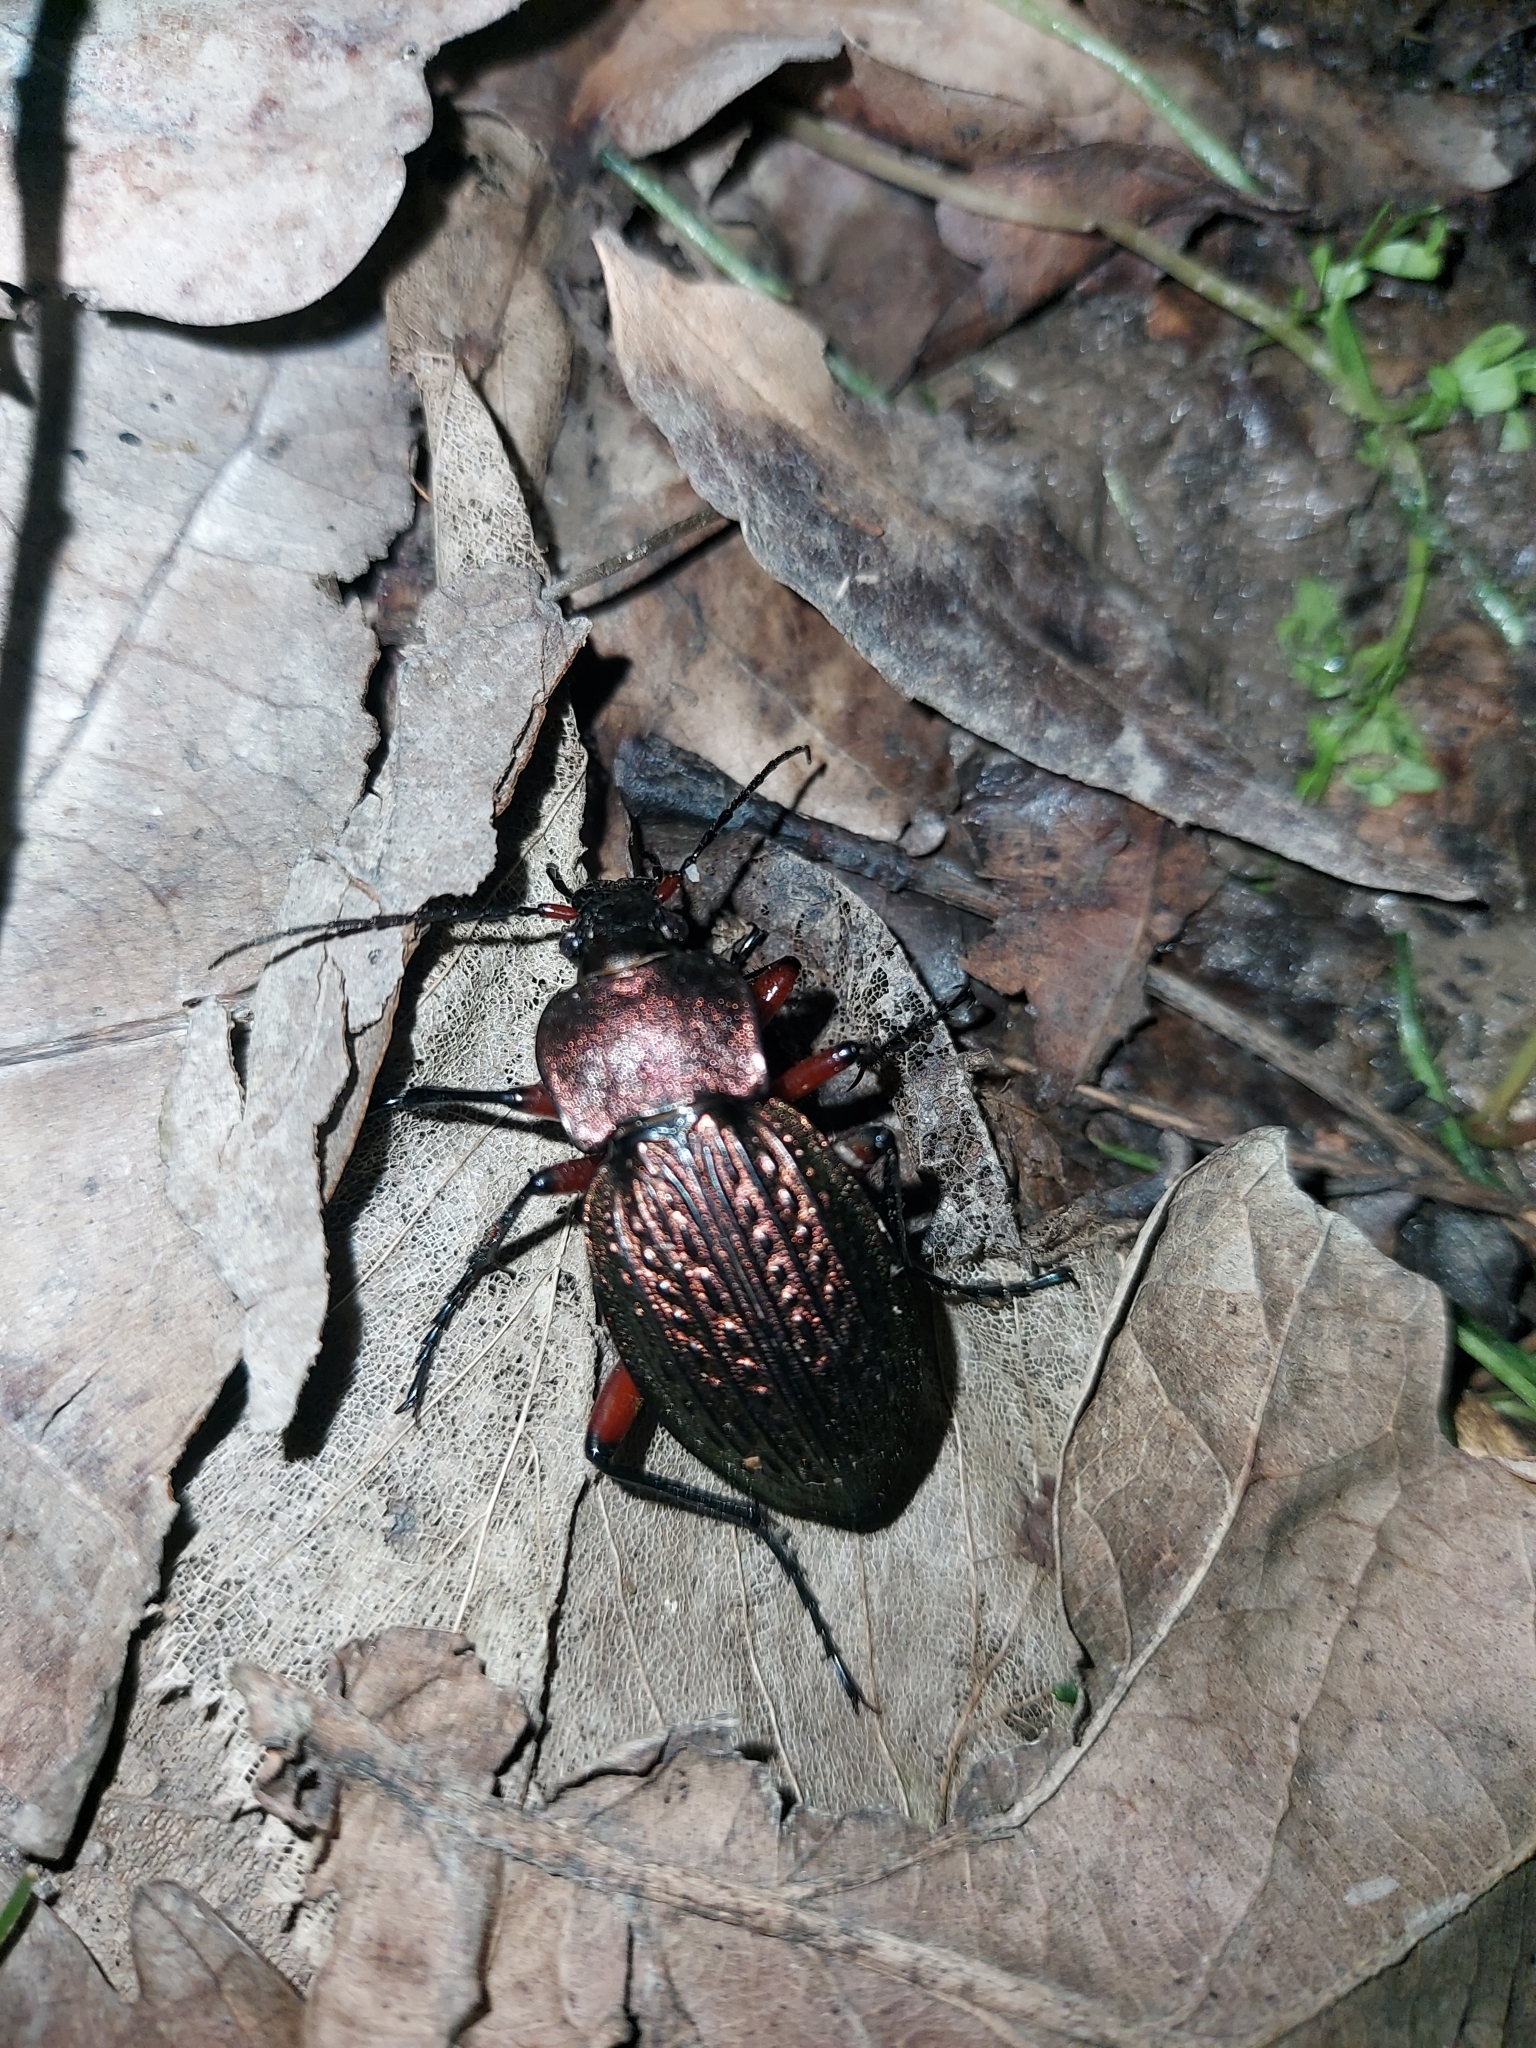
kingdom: Animalia
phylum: Arthropoda
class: Insecta
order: Coleoptera
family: Carabidae
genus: Carabus
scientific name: Carabus cancellatus
